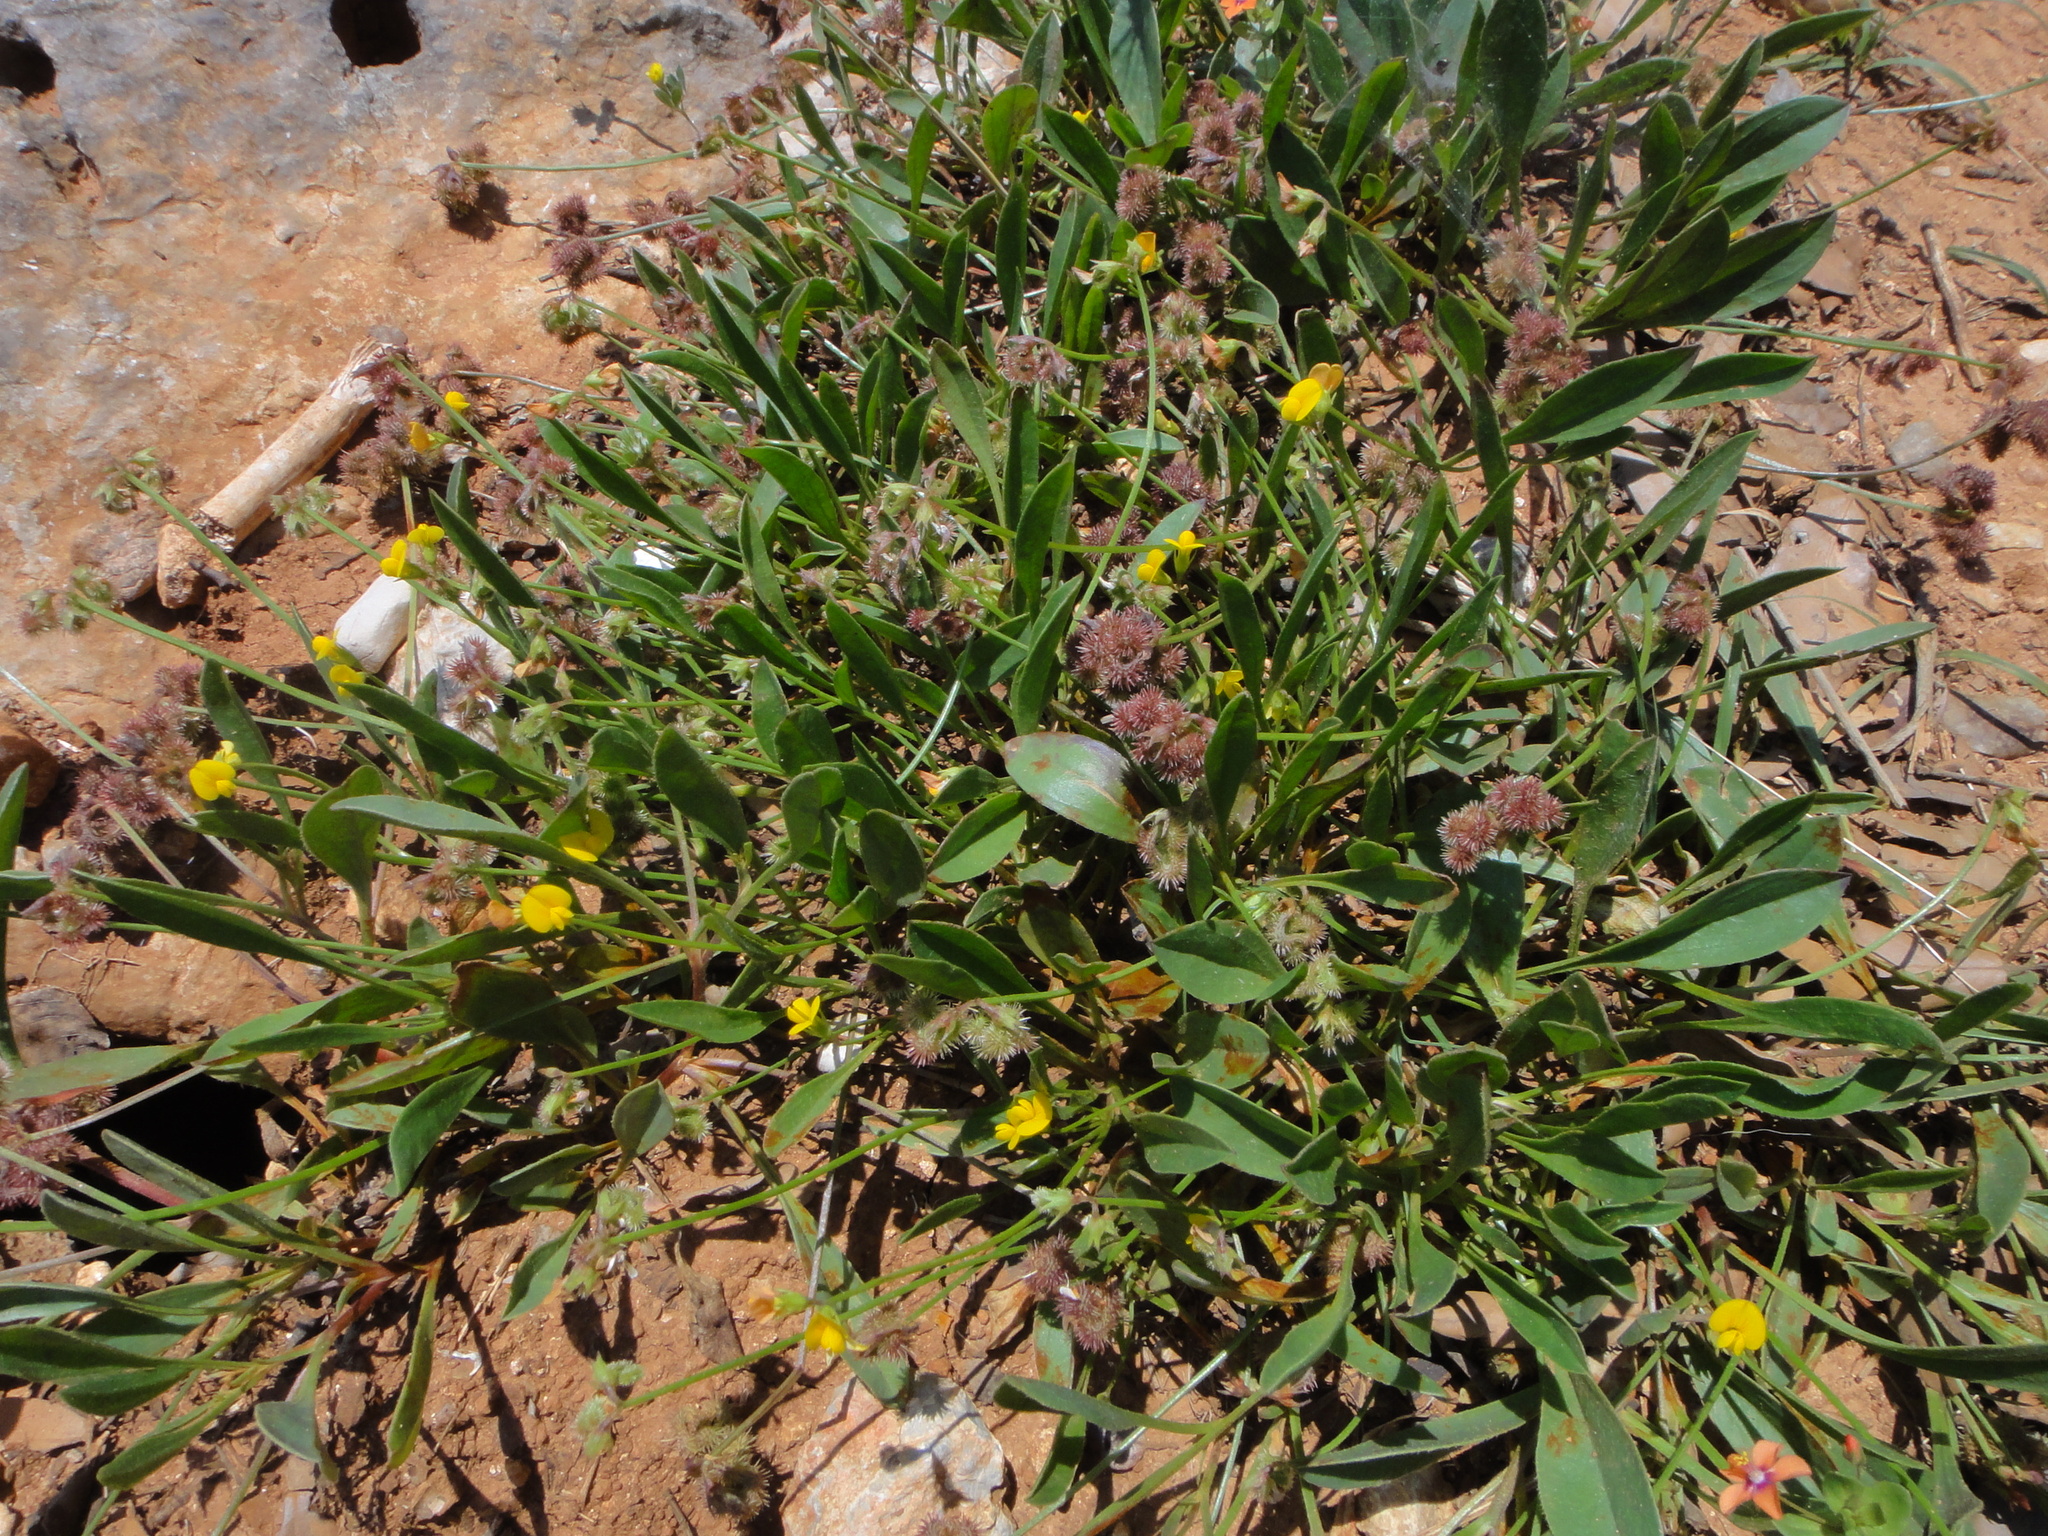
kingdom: Plantae
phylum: Tracheophyta
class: Magnoliopsida
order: Fabales
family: Fabaceae
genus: Scorpiurus
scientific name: Scorpiurus muricatus
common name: Caterpillar-plant
